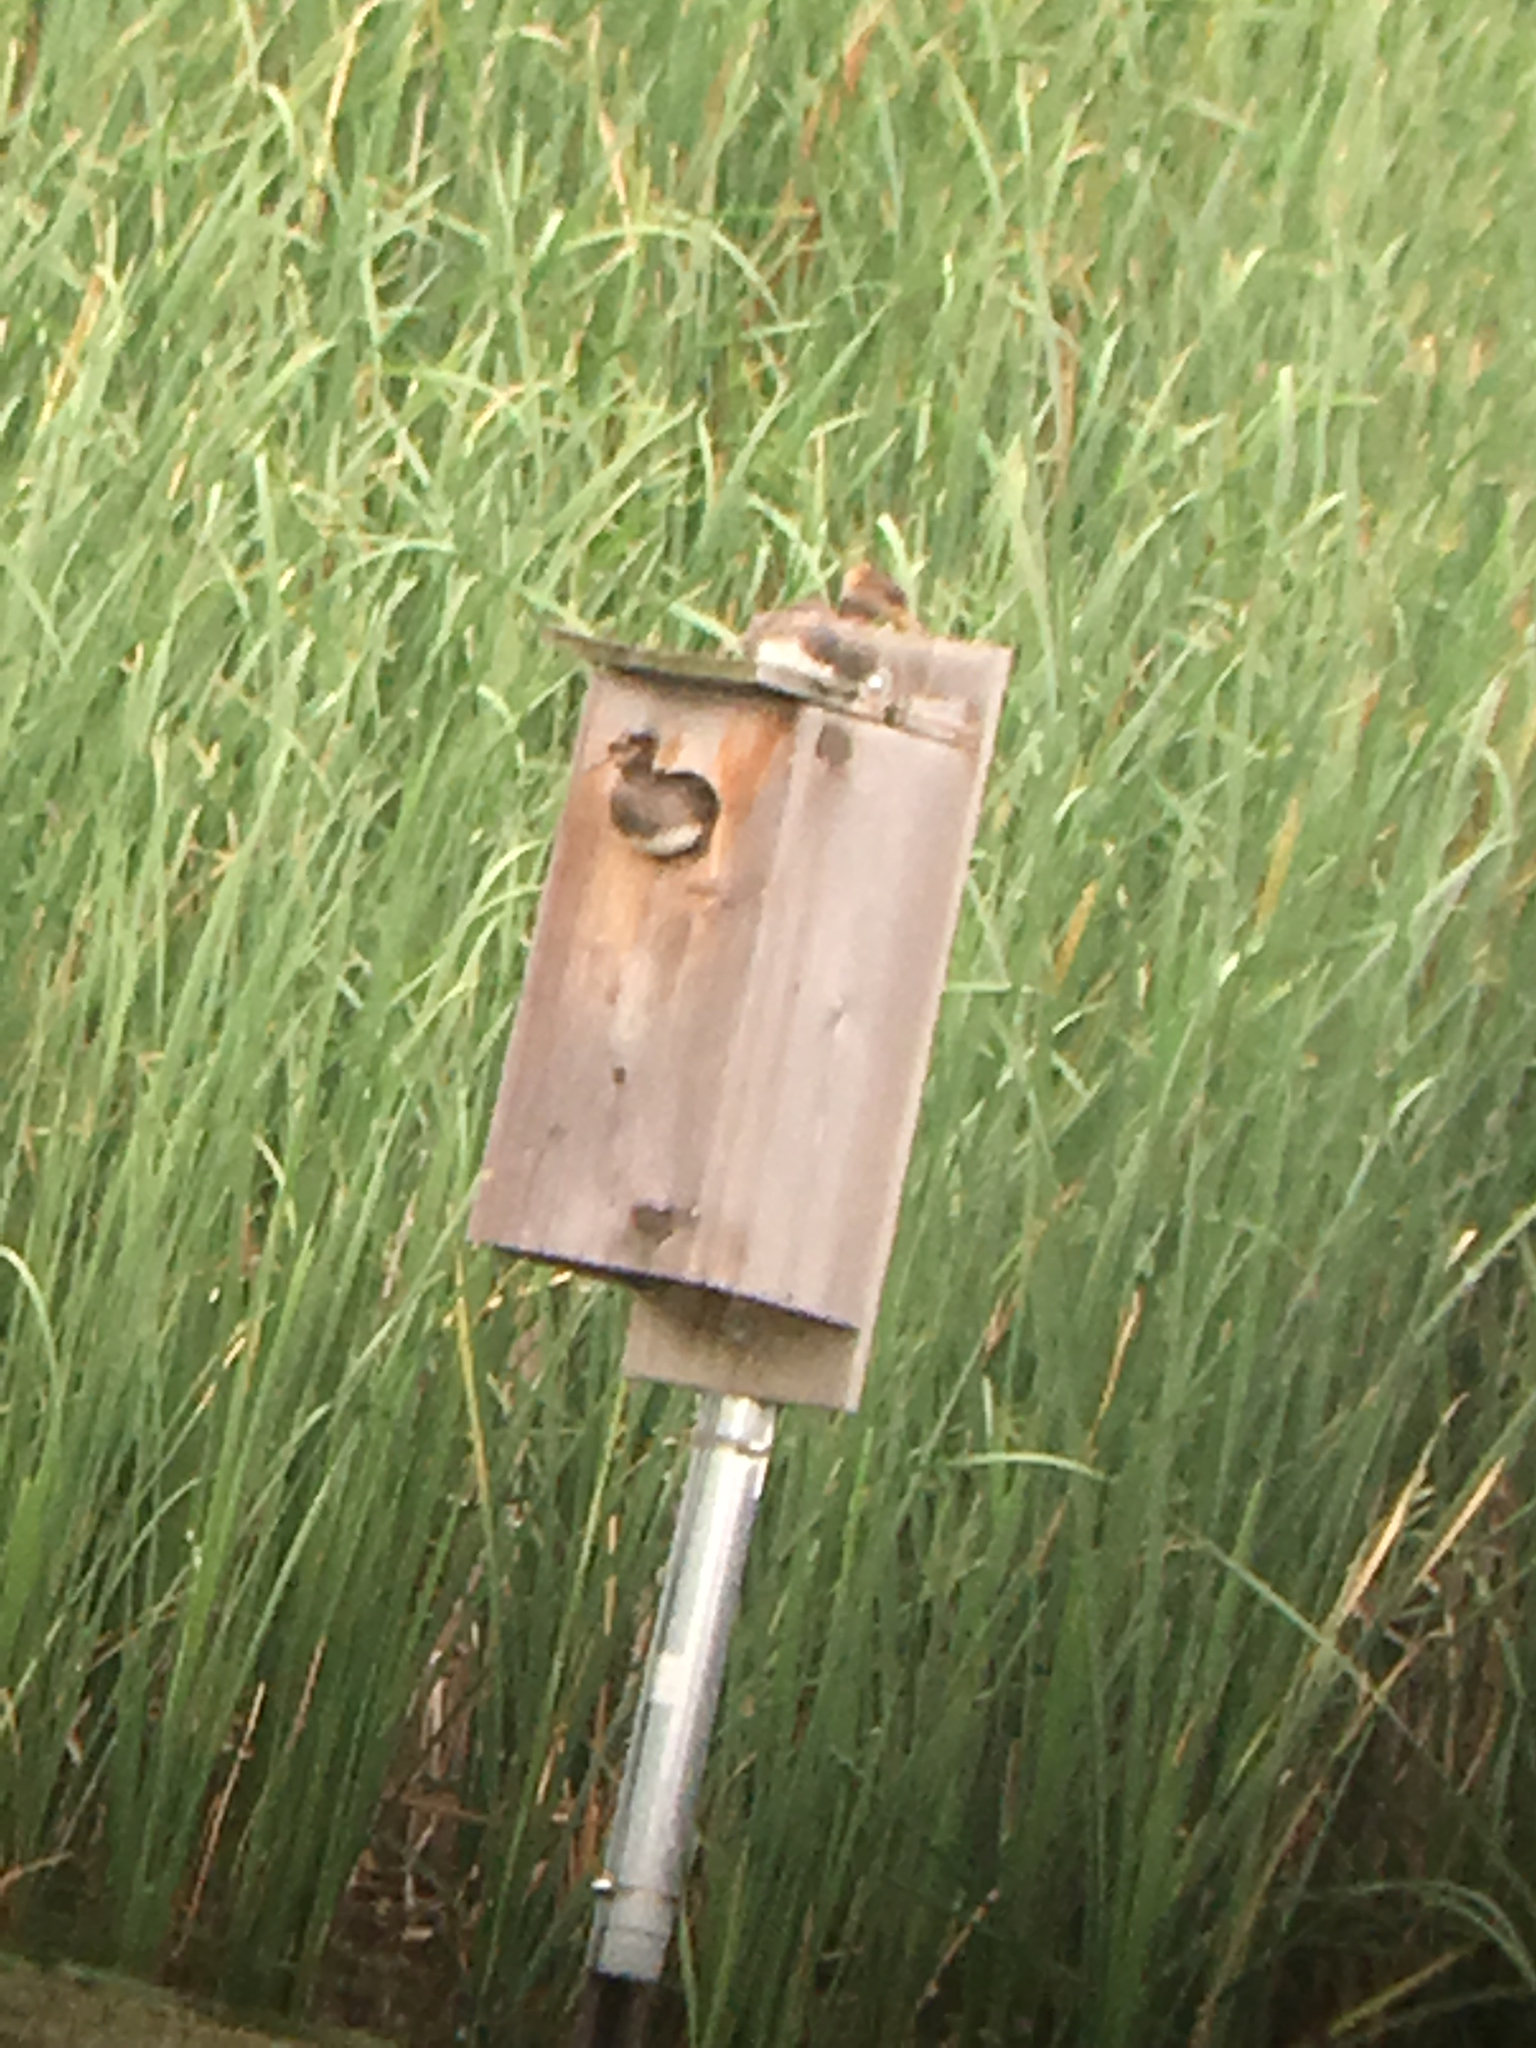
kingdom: Animalia
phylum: Chordata
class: Aves
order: Anseriformes
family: Anatidae
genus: Lophodytes
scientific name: Lophodytes cucullatus
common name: Hooded merganser
